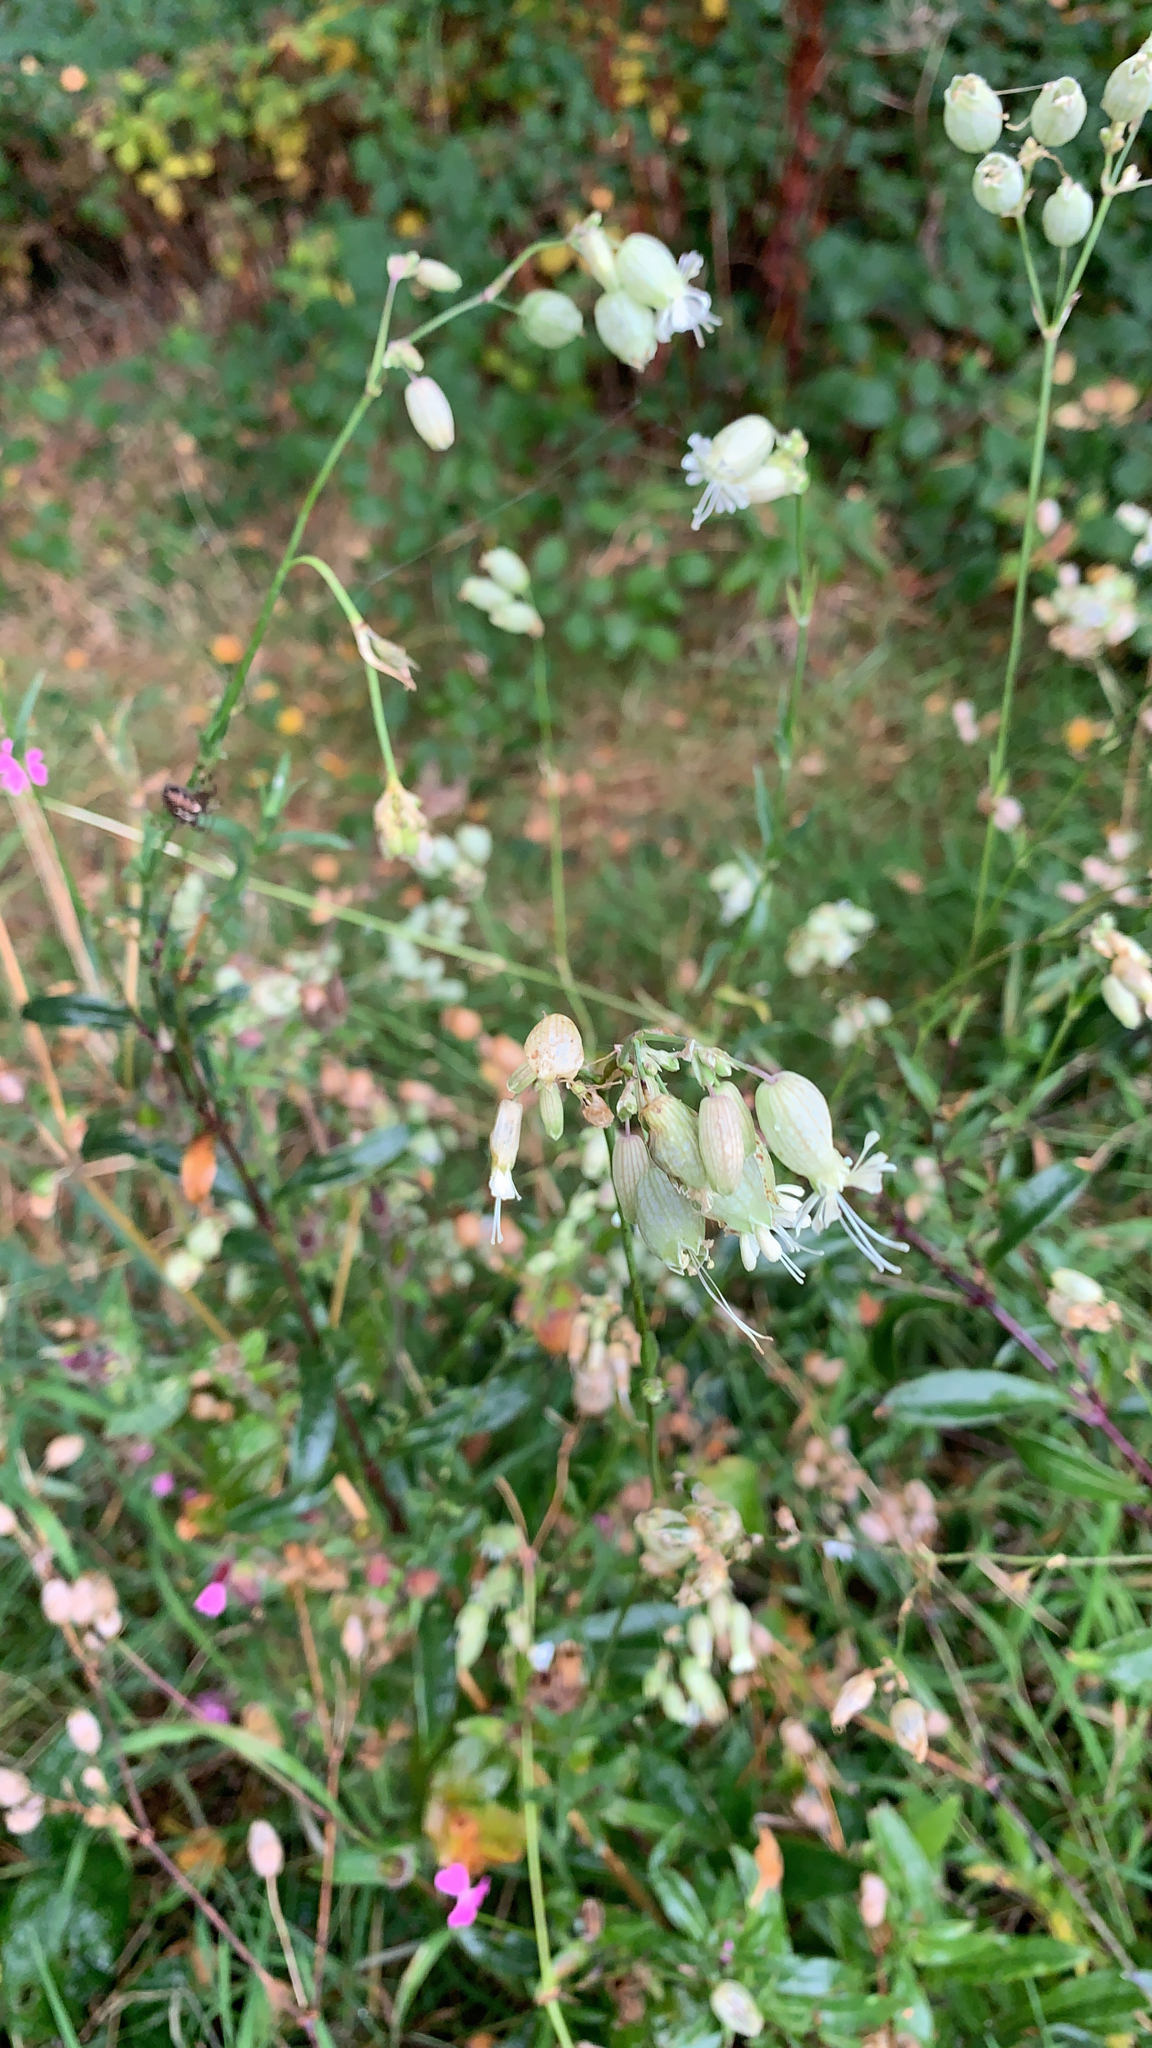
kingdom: Plantae
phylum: Tracheophyta
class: Magnoliopsida
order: Caryophyllales
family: Caryophyllaceae
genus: Silene
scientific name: Silene vulgaris
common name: Bladder campion
